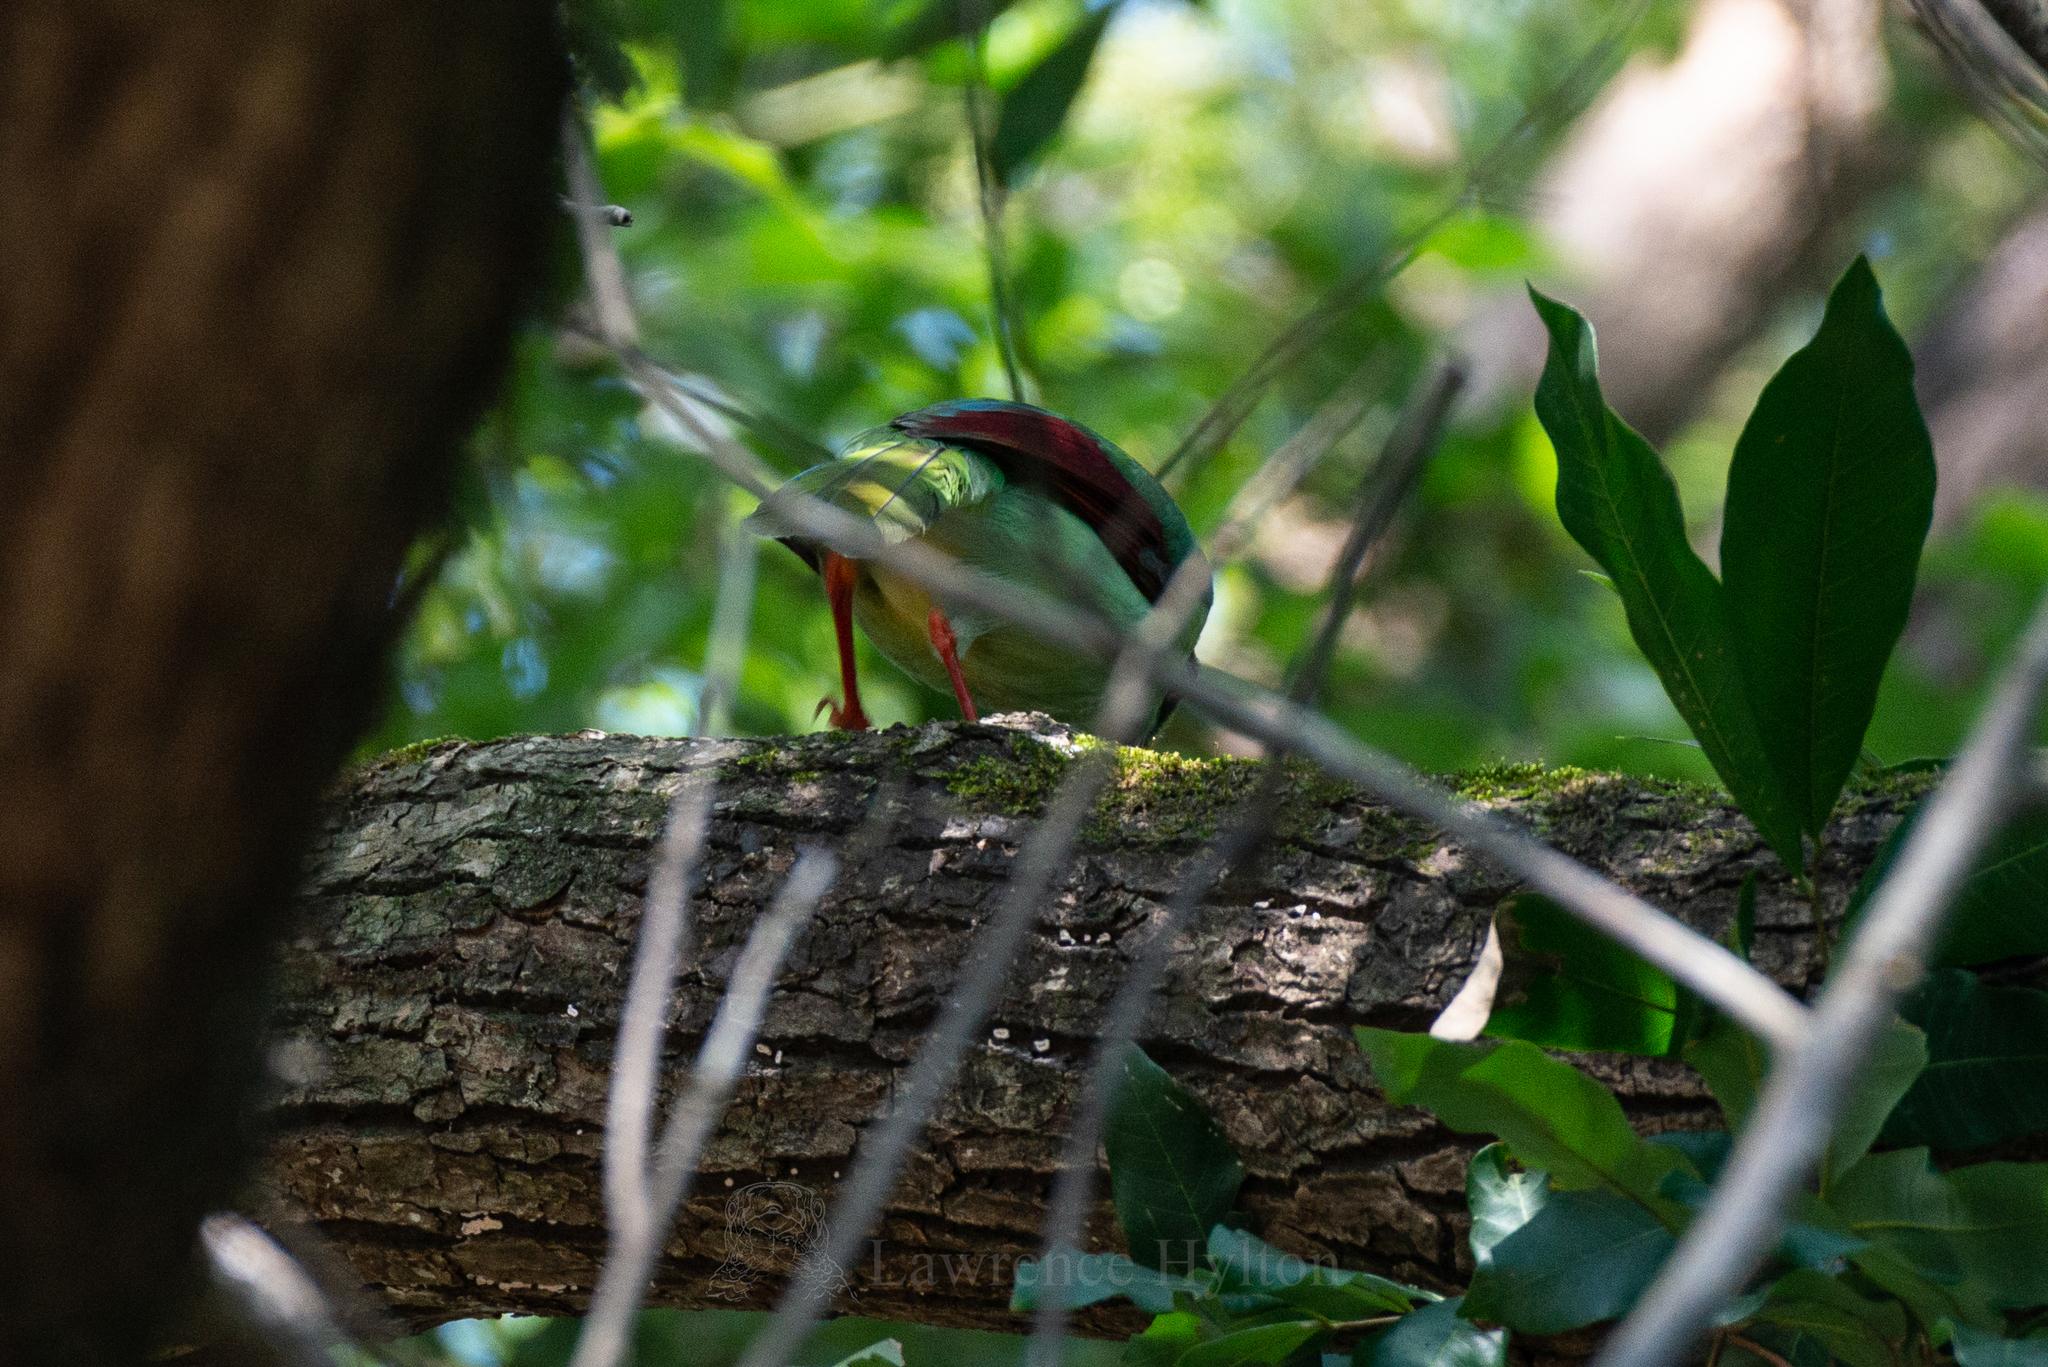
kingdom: Animalia
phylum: Chordata
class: Aves
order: Passeriformes
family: Corvidae
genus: Cissa
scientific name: Cissa hypoleuca
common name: Indochinese green magpie
